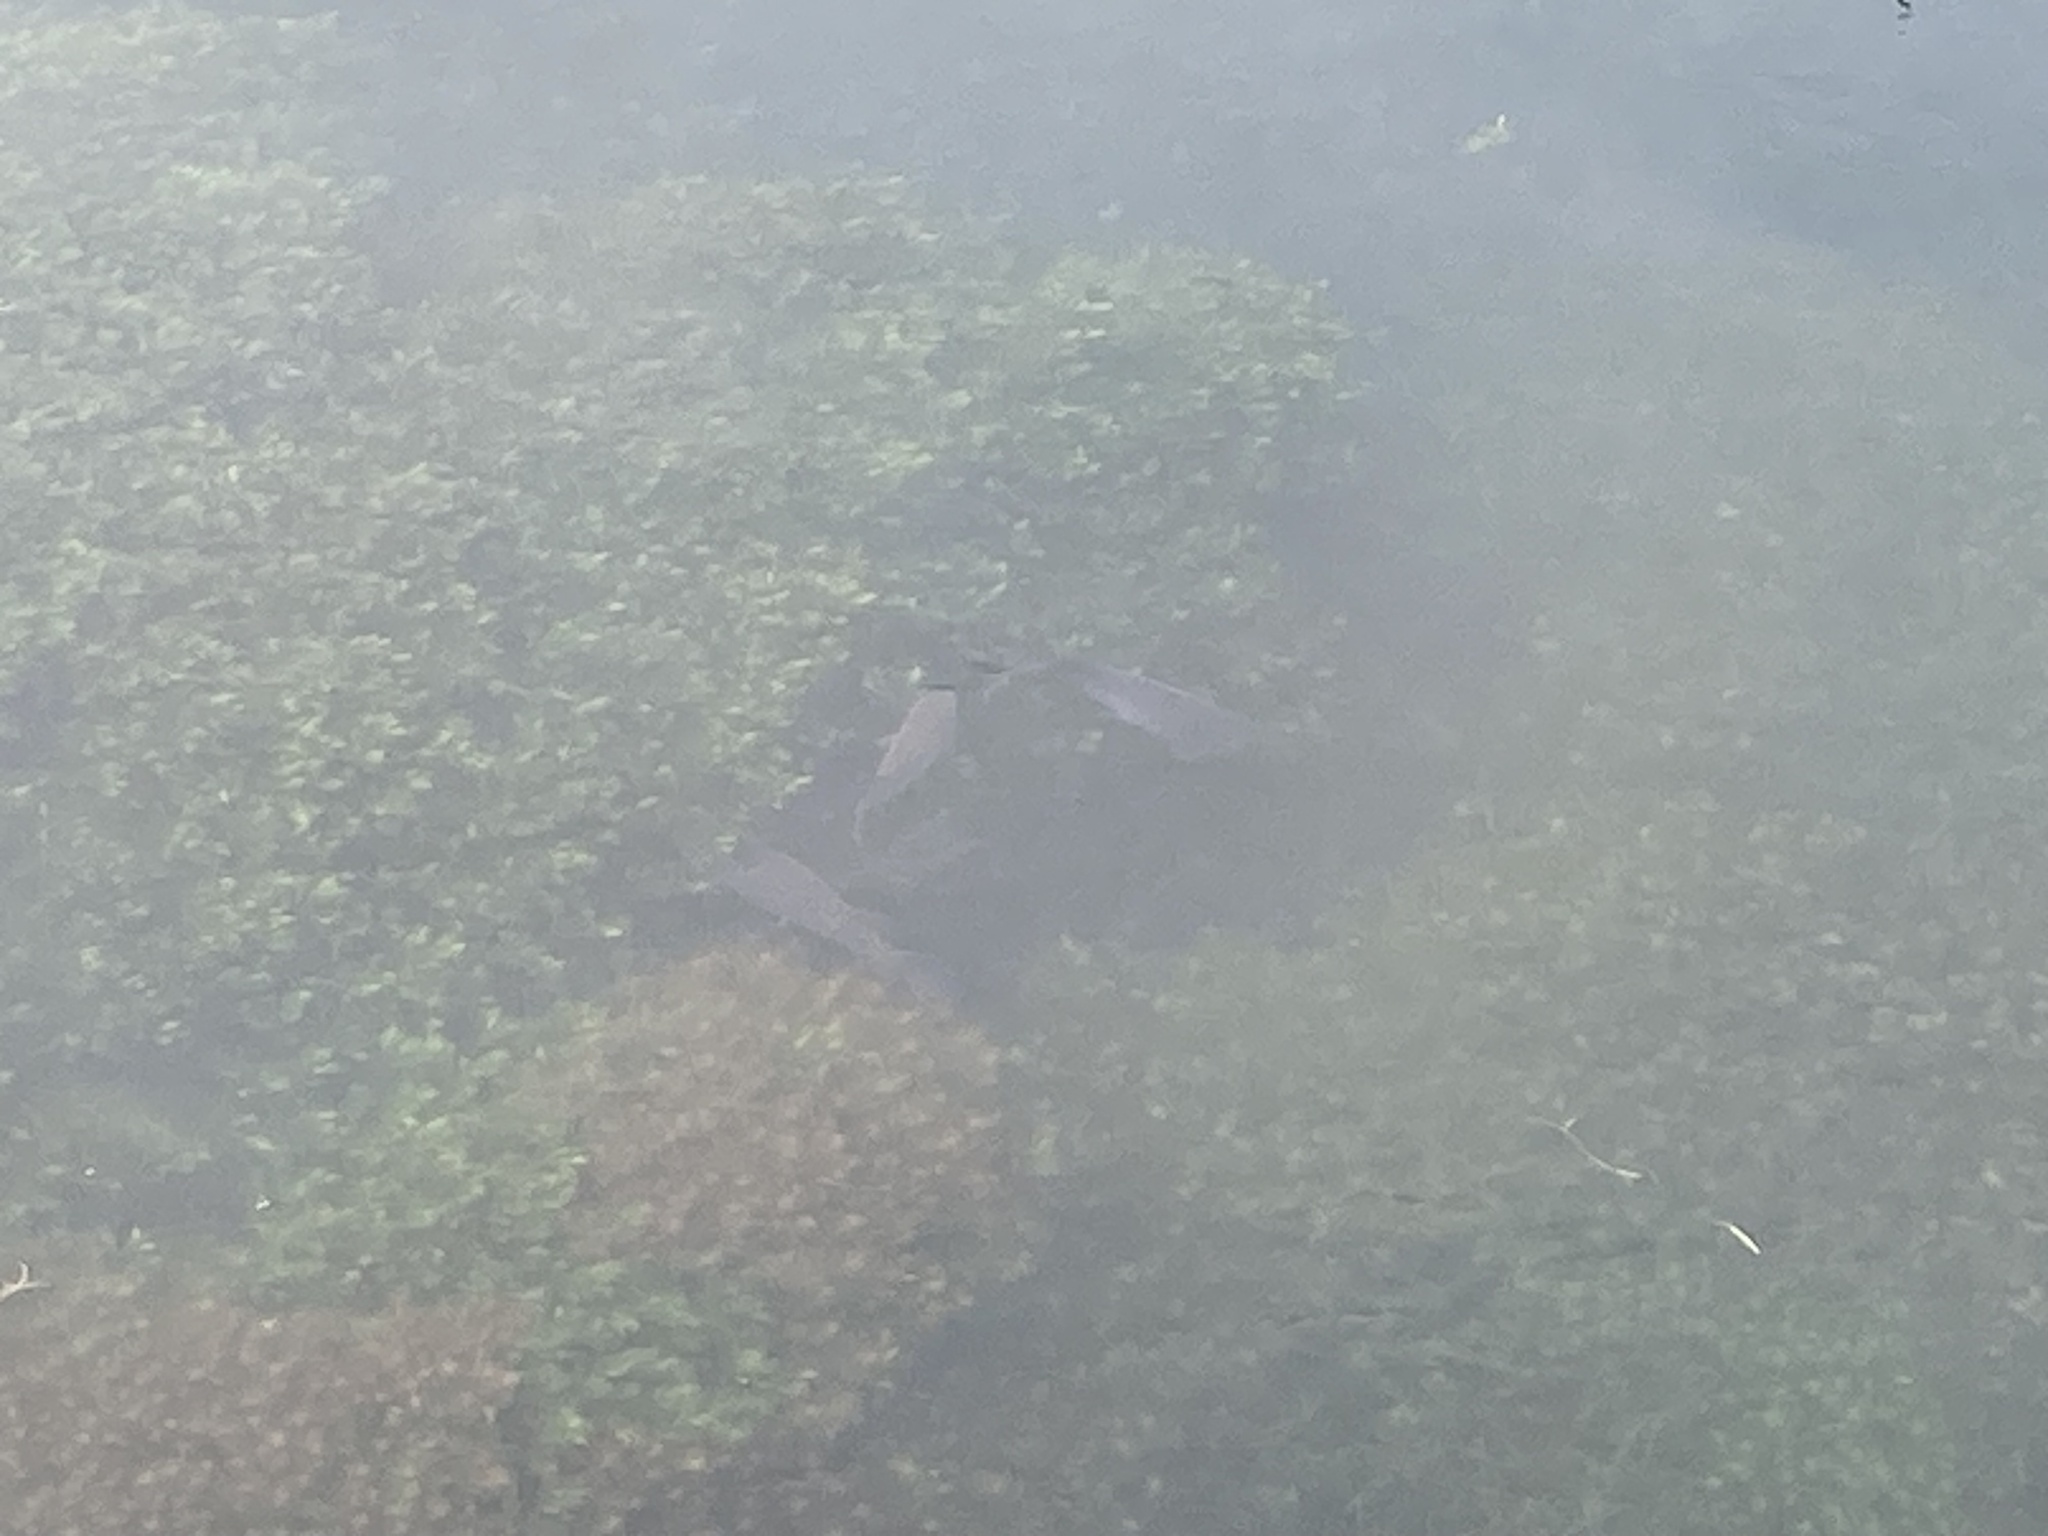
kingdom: Animalia
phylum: Chordata
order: Osmeriformes
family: Galaxiidae
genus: Galaxias
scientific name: Galaxias argenteus
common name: Giant kokopu
